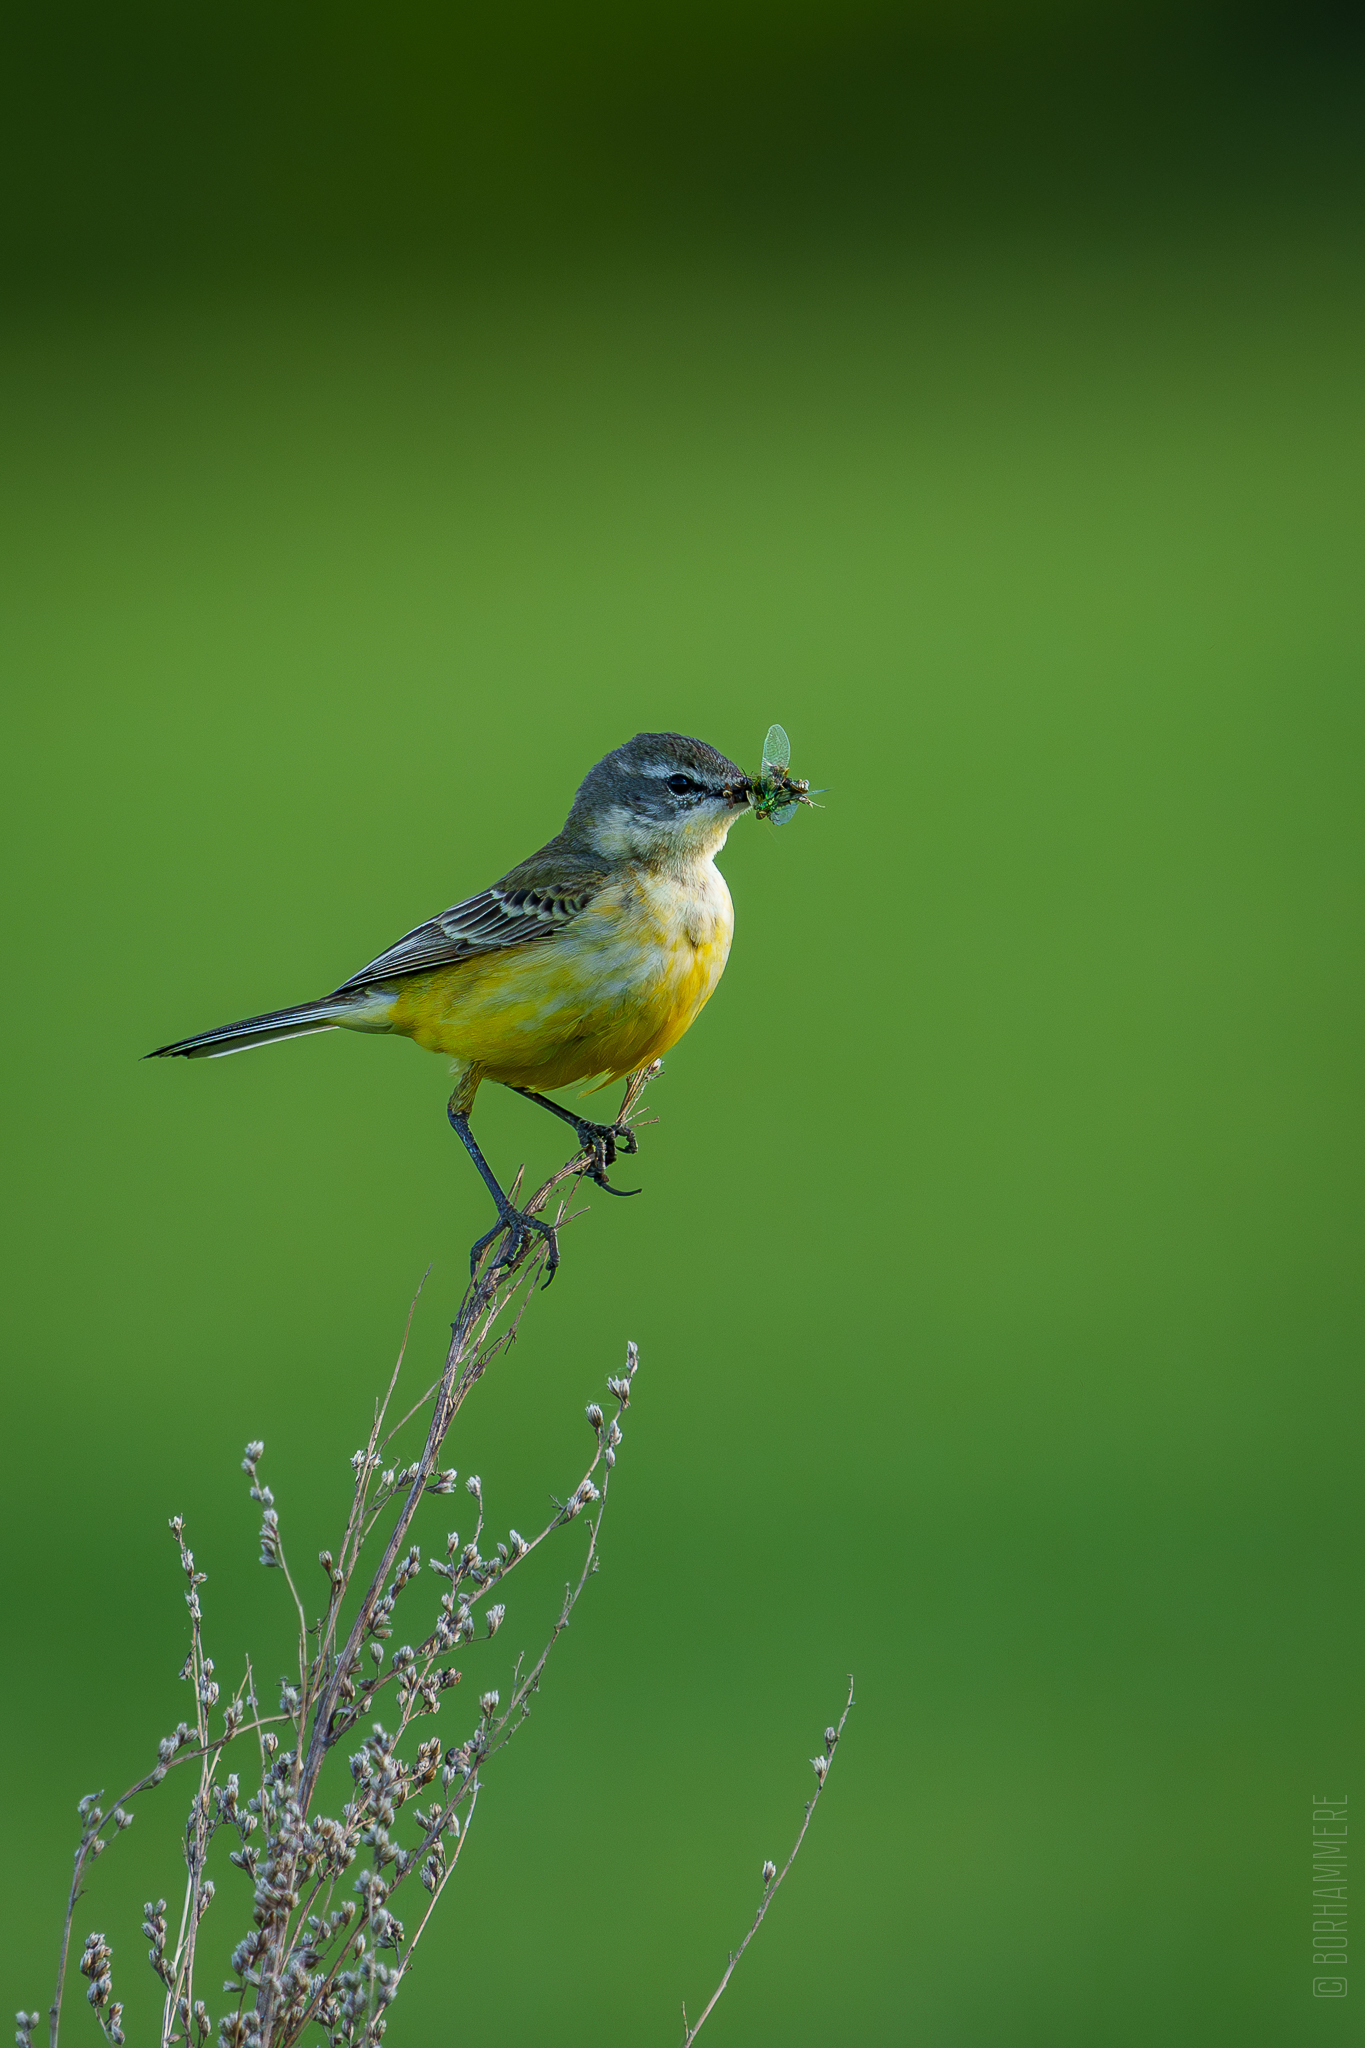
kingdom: Animalia
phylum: Chordata
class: Aves
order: Passeriformes
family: Motacillidae
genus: Motacilla
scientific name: Motacilla flava
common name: Western yellow wagtail
